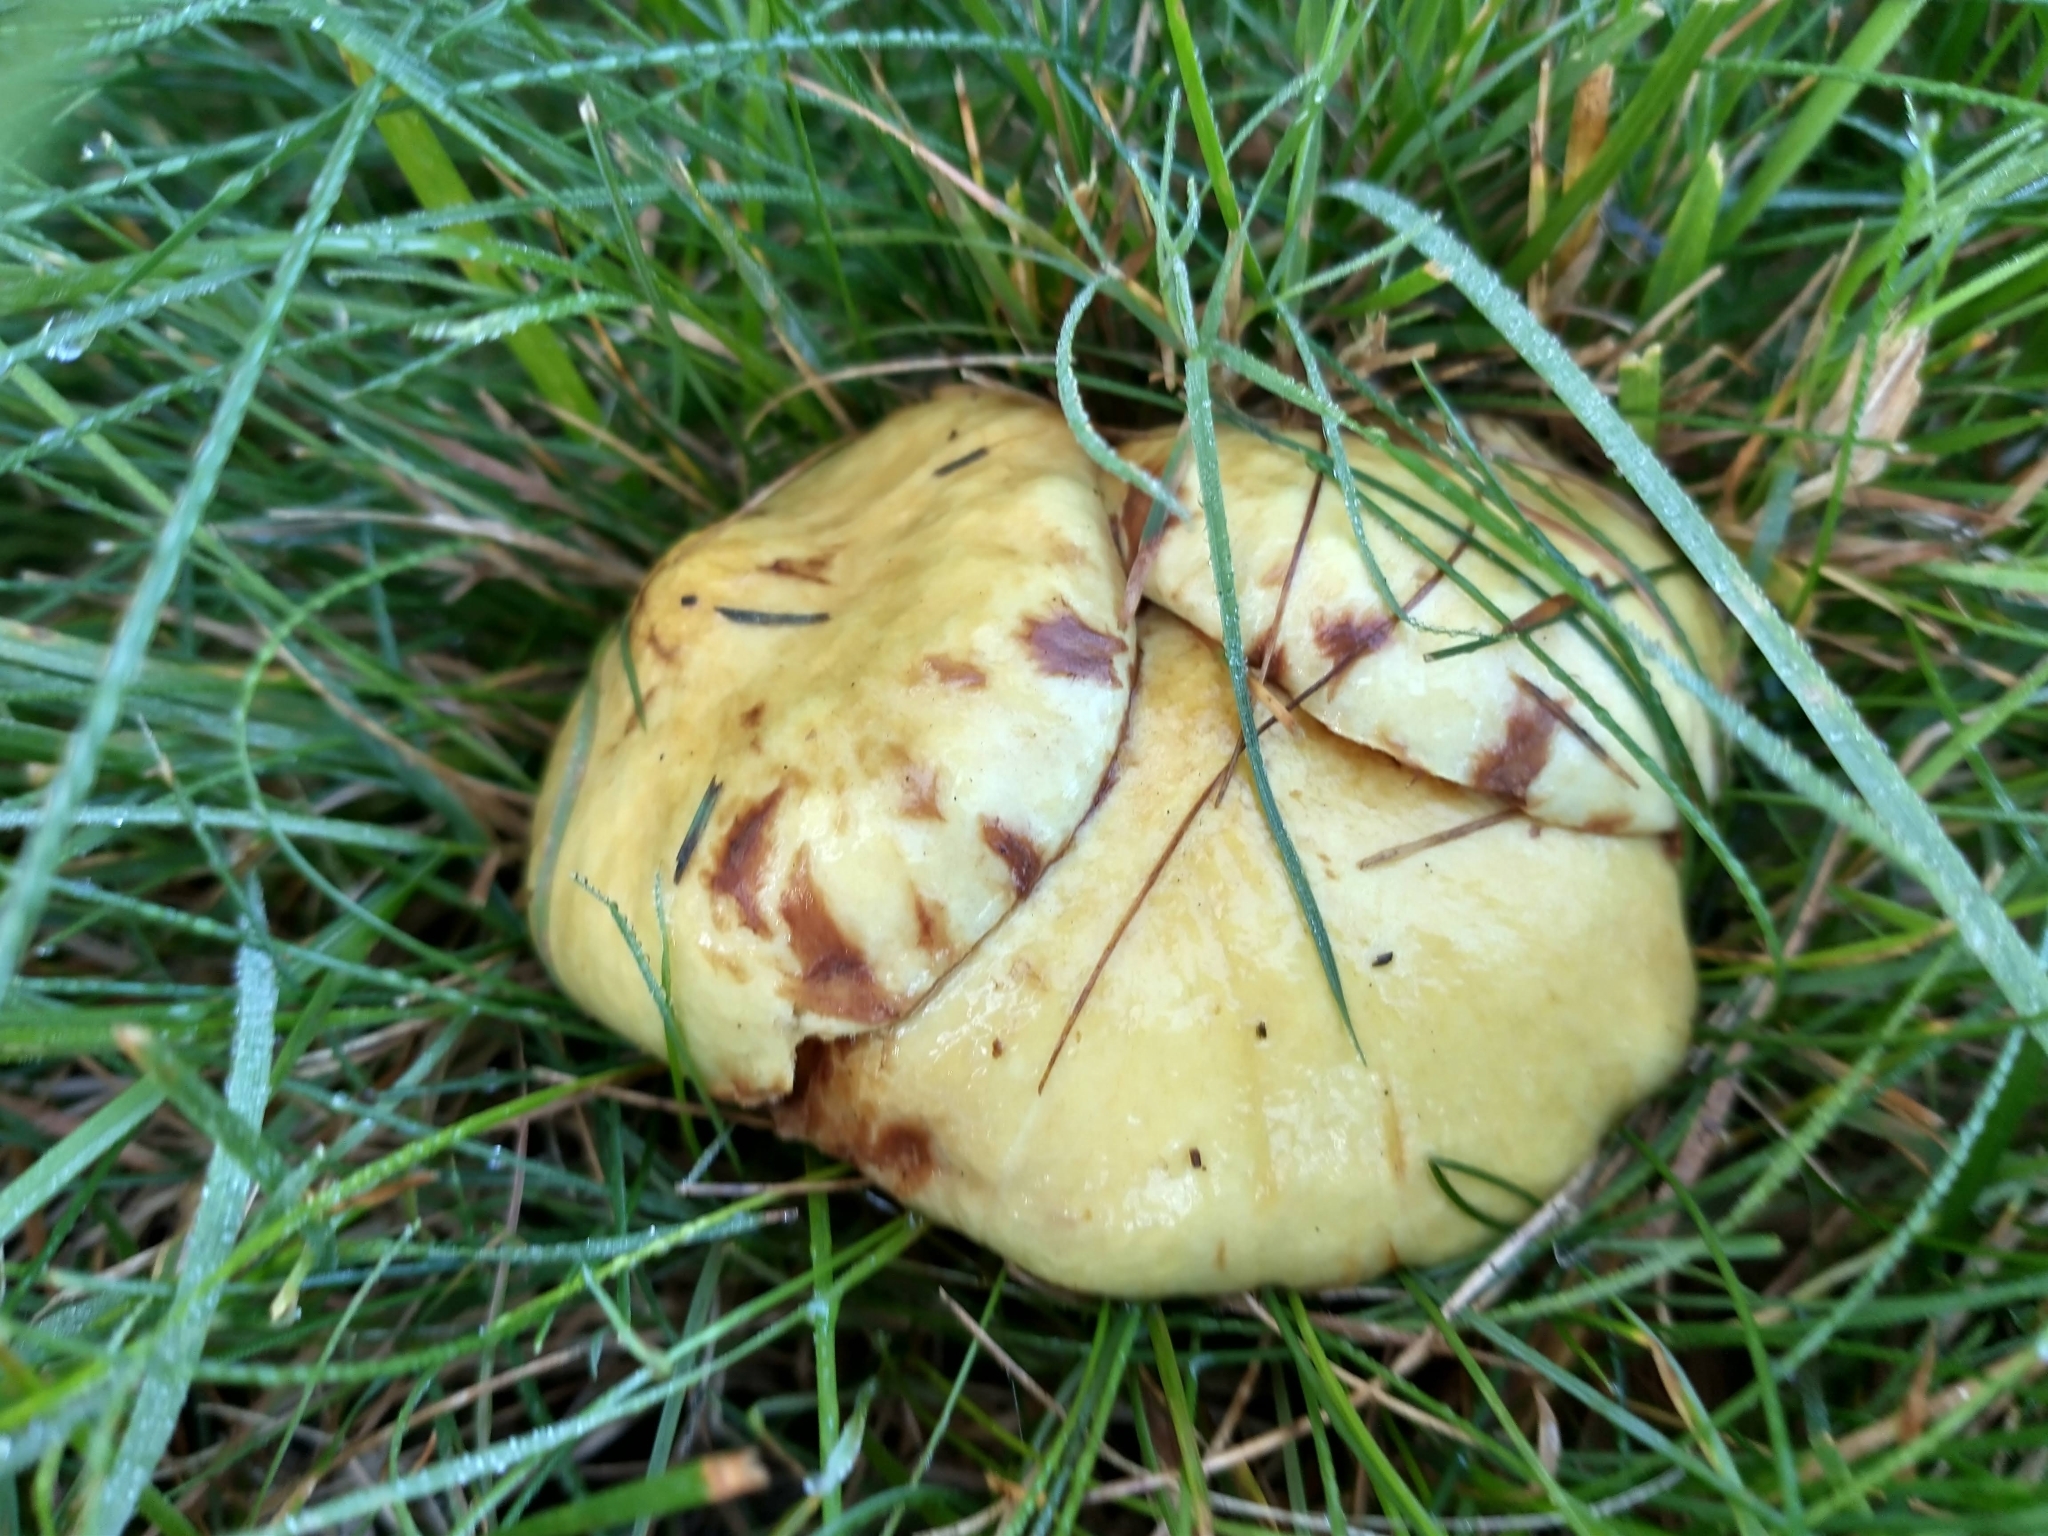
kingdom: Fungi
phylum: Basidiomycota
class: Agaricomycetes
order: Boletales
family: Suillaceae
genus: Suillus
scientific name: Suillus americanus
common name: Chicken fat mushroom
